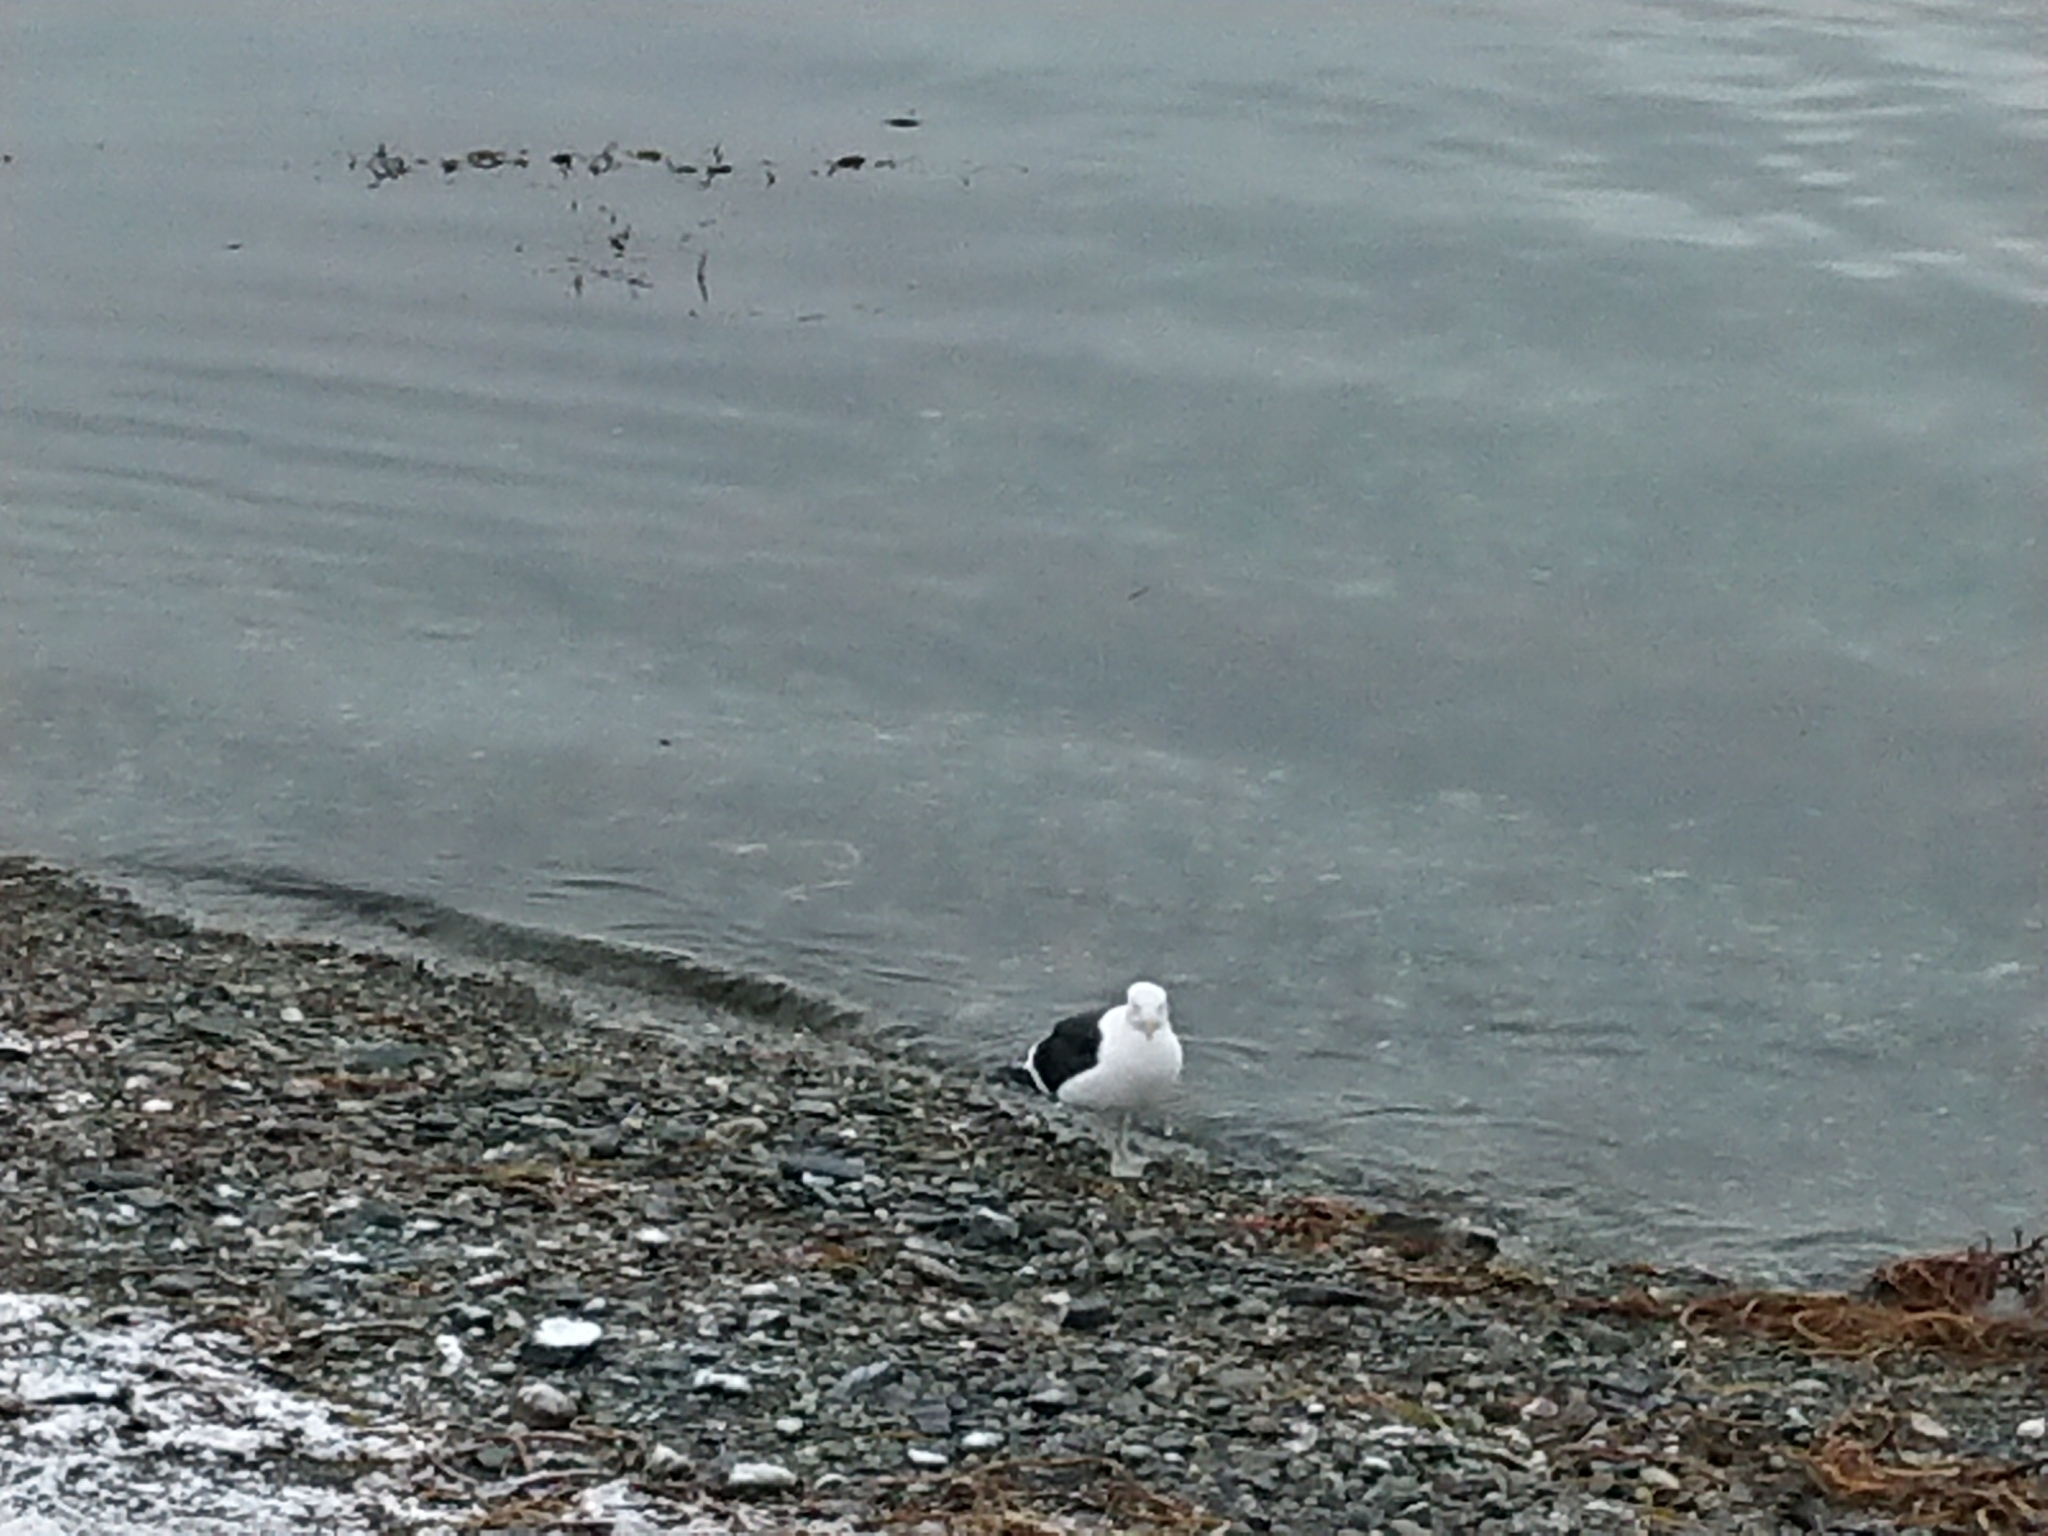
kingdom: Animalia
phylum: Chordata
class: Aves
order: Charadriiformes
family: Laridae
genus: Larus
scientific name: Larus dominicanus
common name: Kelp gull
